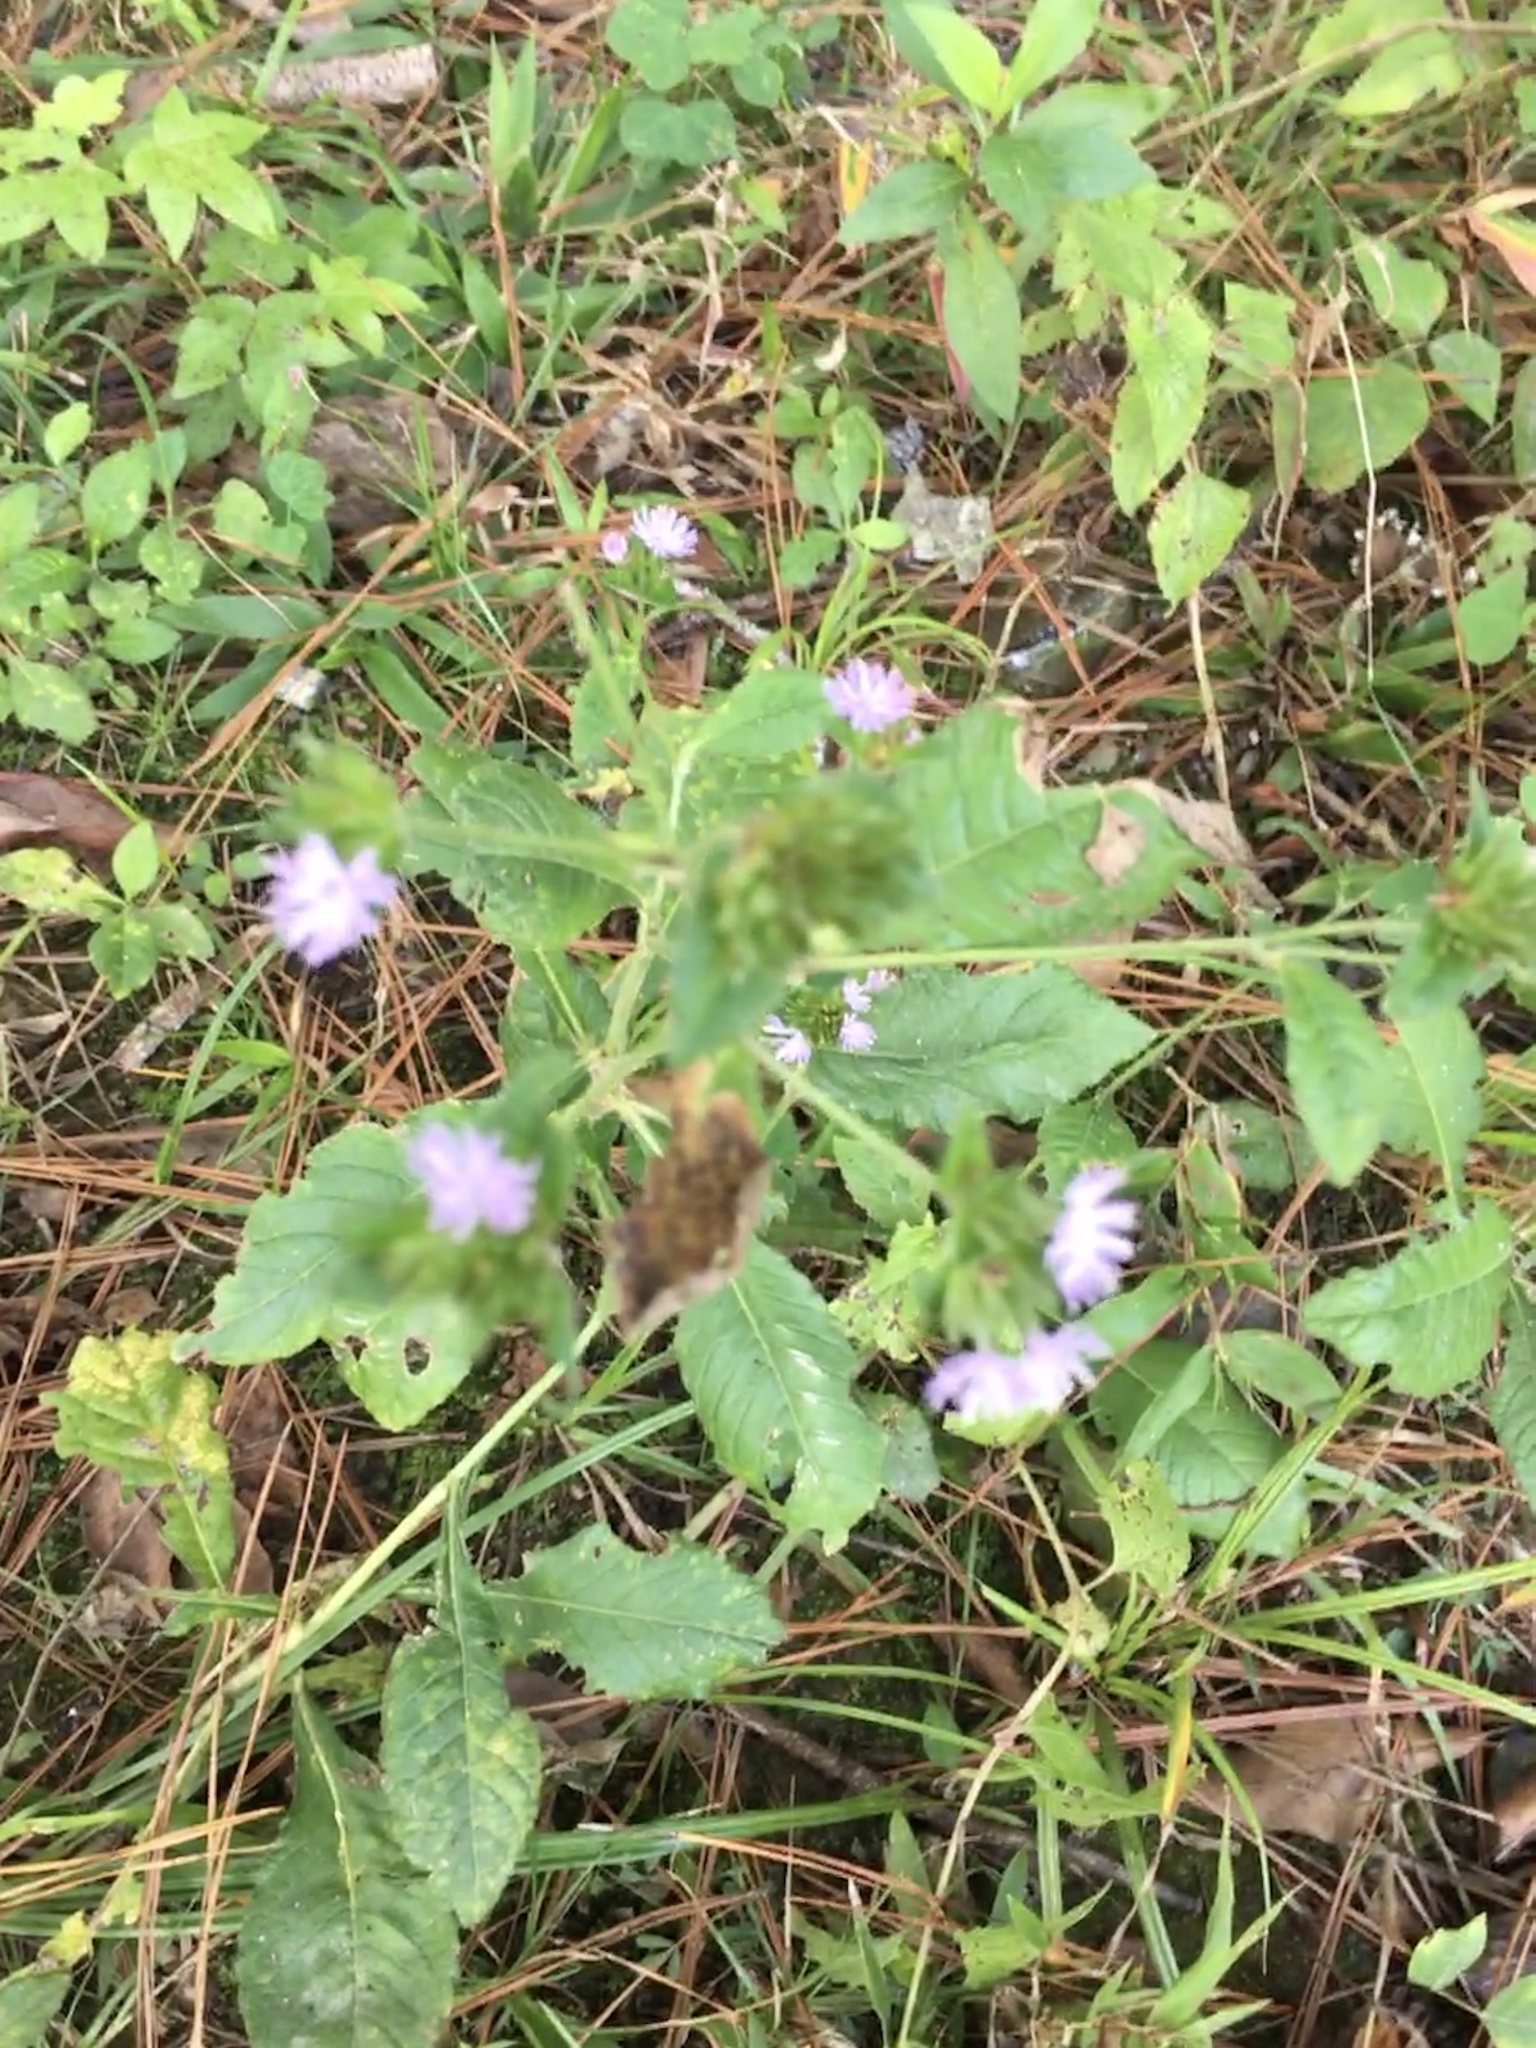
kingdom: Plantae
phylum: Tracheophyta
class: Magnoliopsida
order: Asterales
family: Asteraceae
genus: Elephantopus
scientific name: Elephantopus carolinianus
